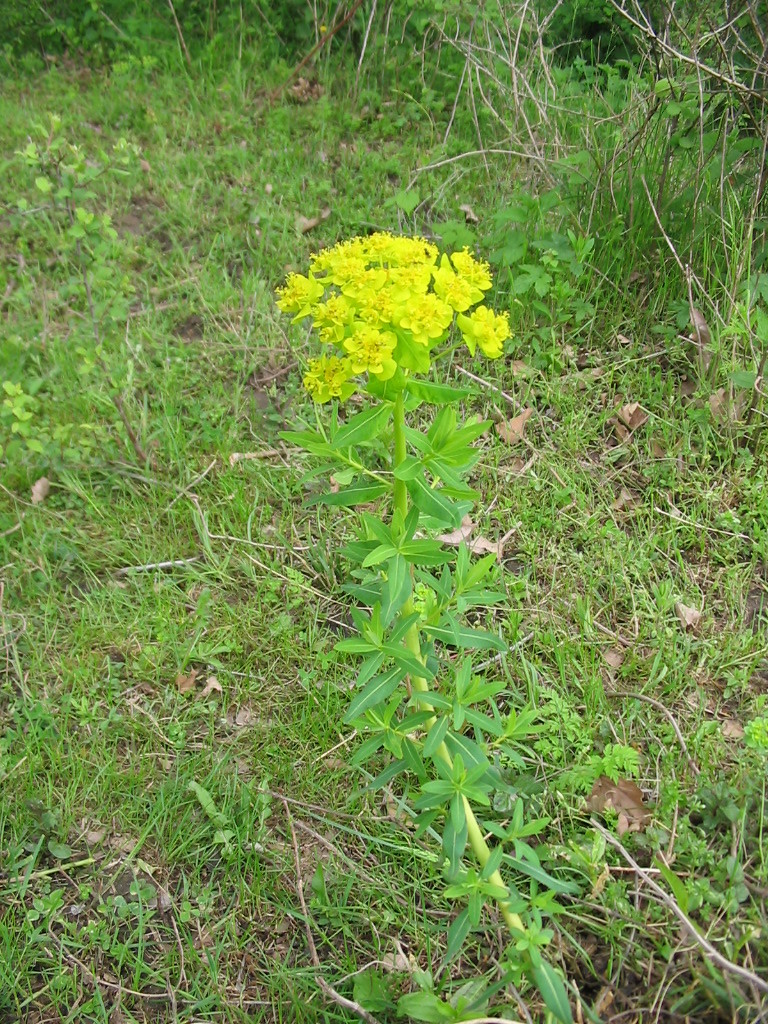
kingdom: Plantae
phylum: Tracheophyta
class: Magnoliopsida
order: Malpighiales
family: Euphorbiaceae
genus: Euphorbia
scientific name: Euphorbia palustris
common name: Marsh spurge
